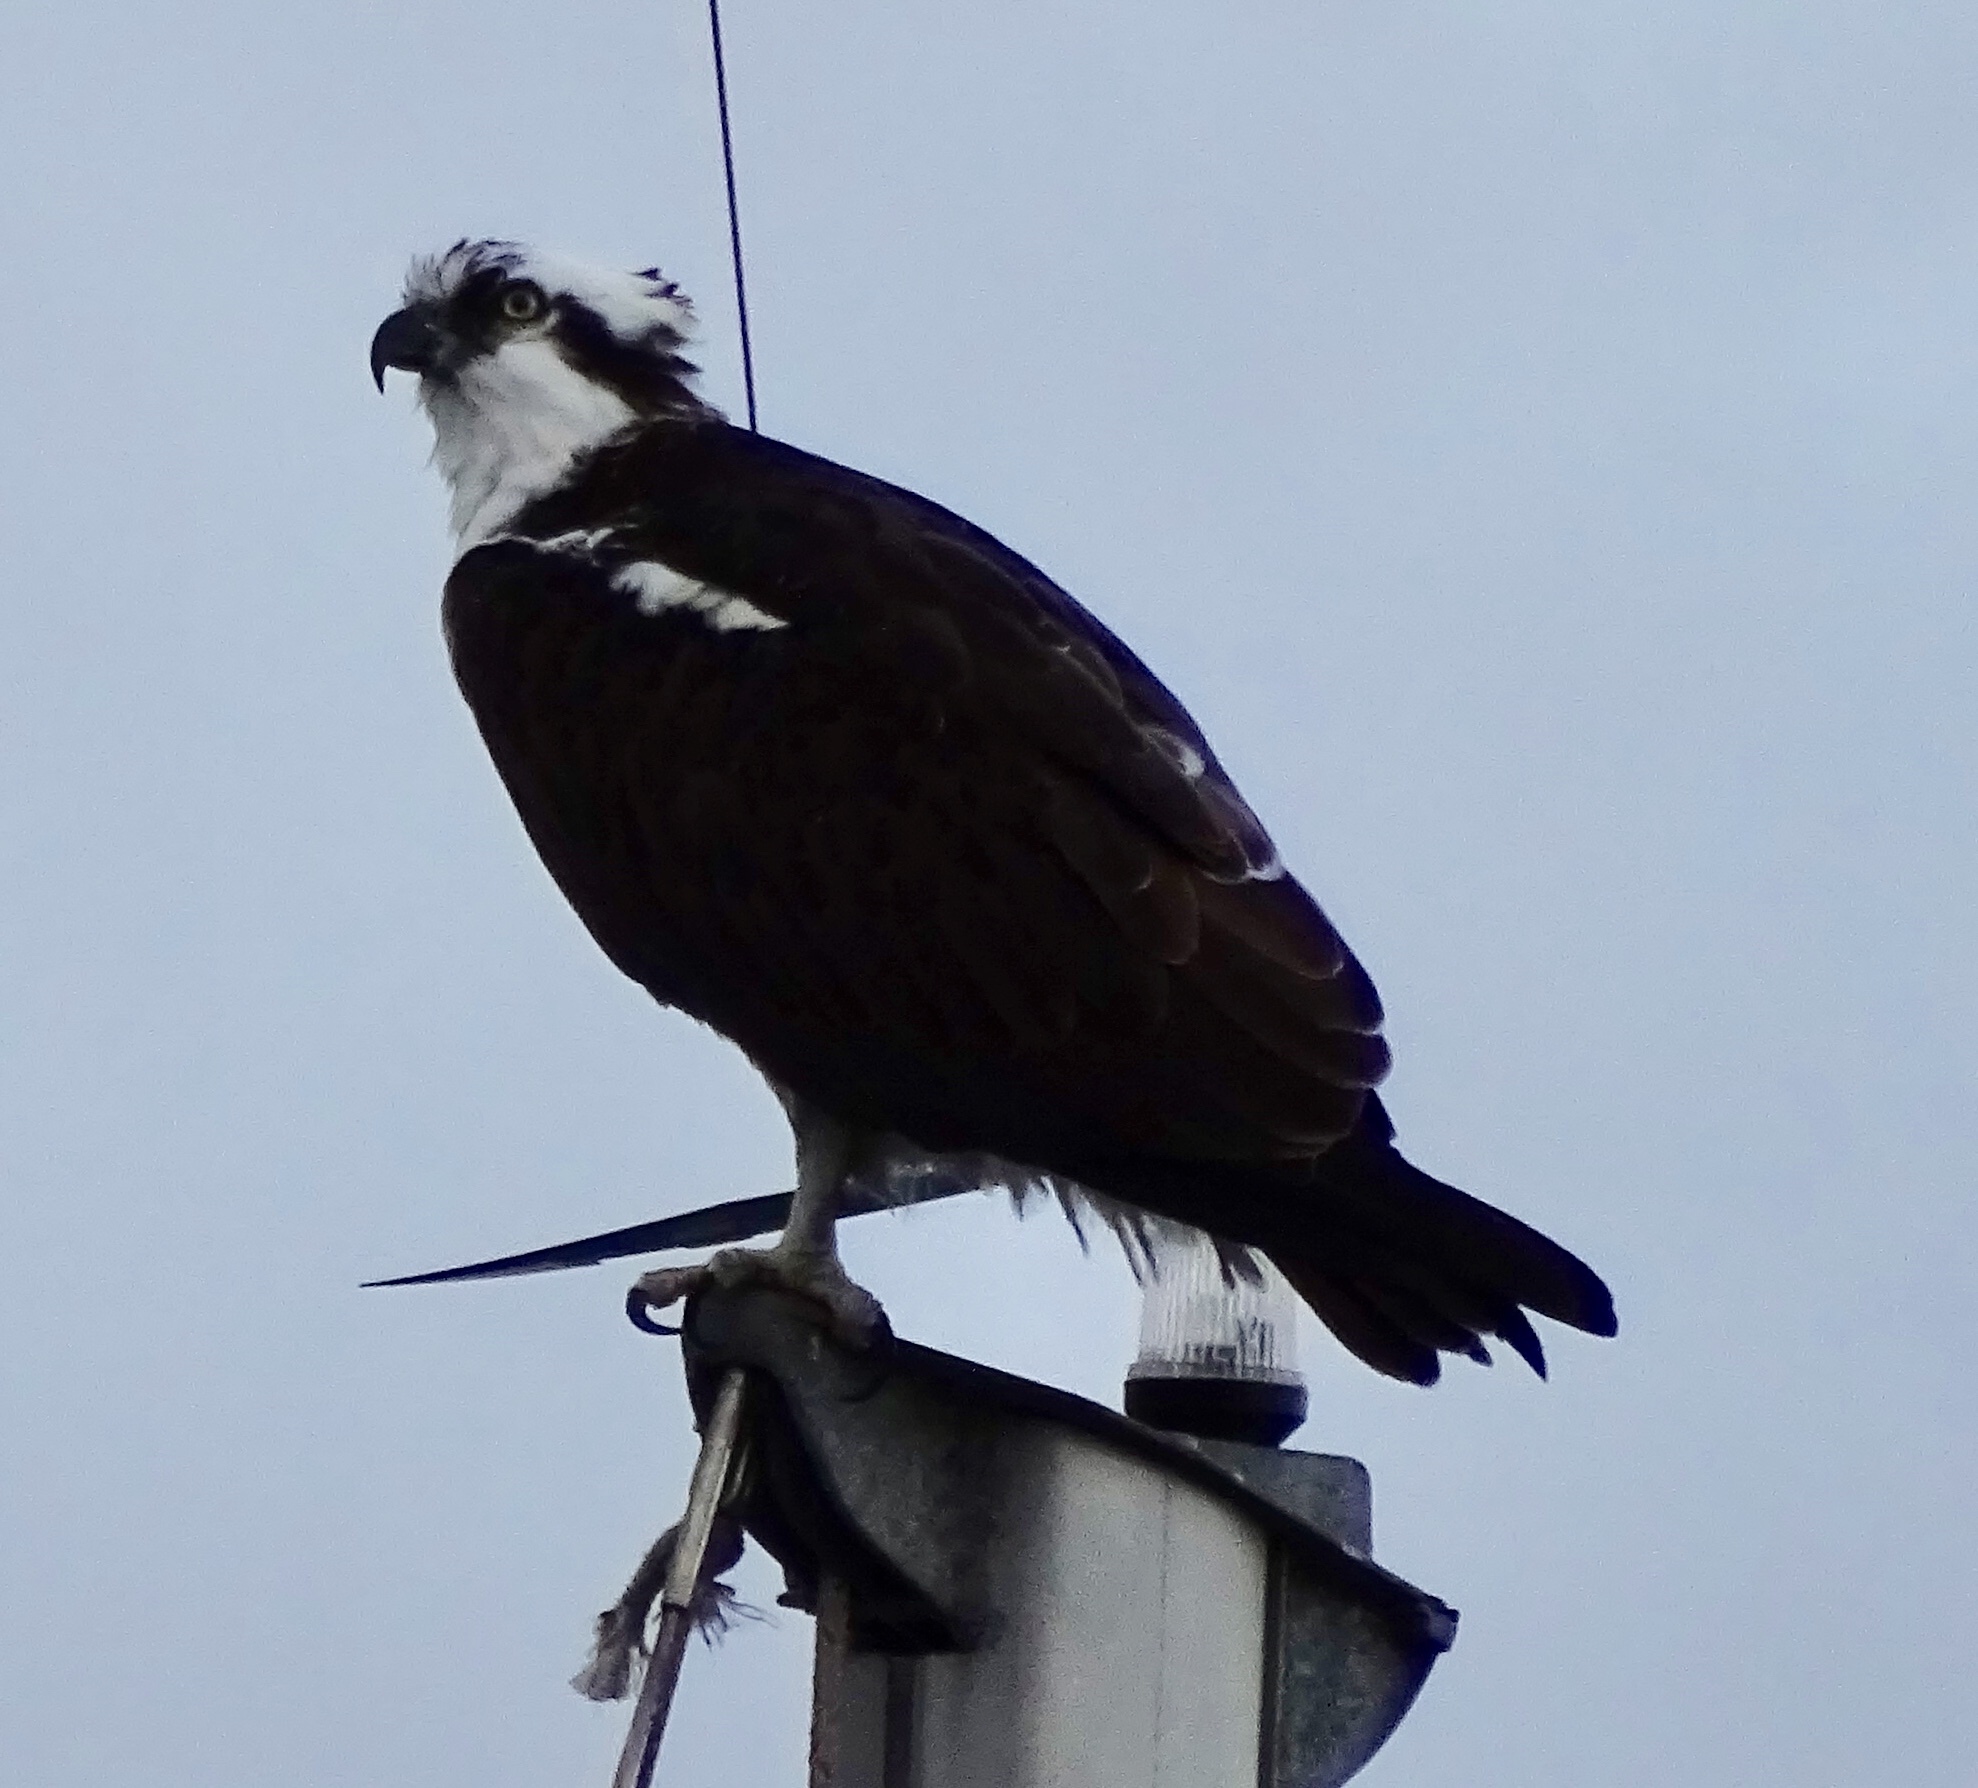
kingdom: Animalia
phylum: Chordata
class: Aves
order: Accipitriformes
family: Pandionidae
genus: Pandion
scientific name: Pandion haliaetus
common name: Osprey
